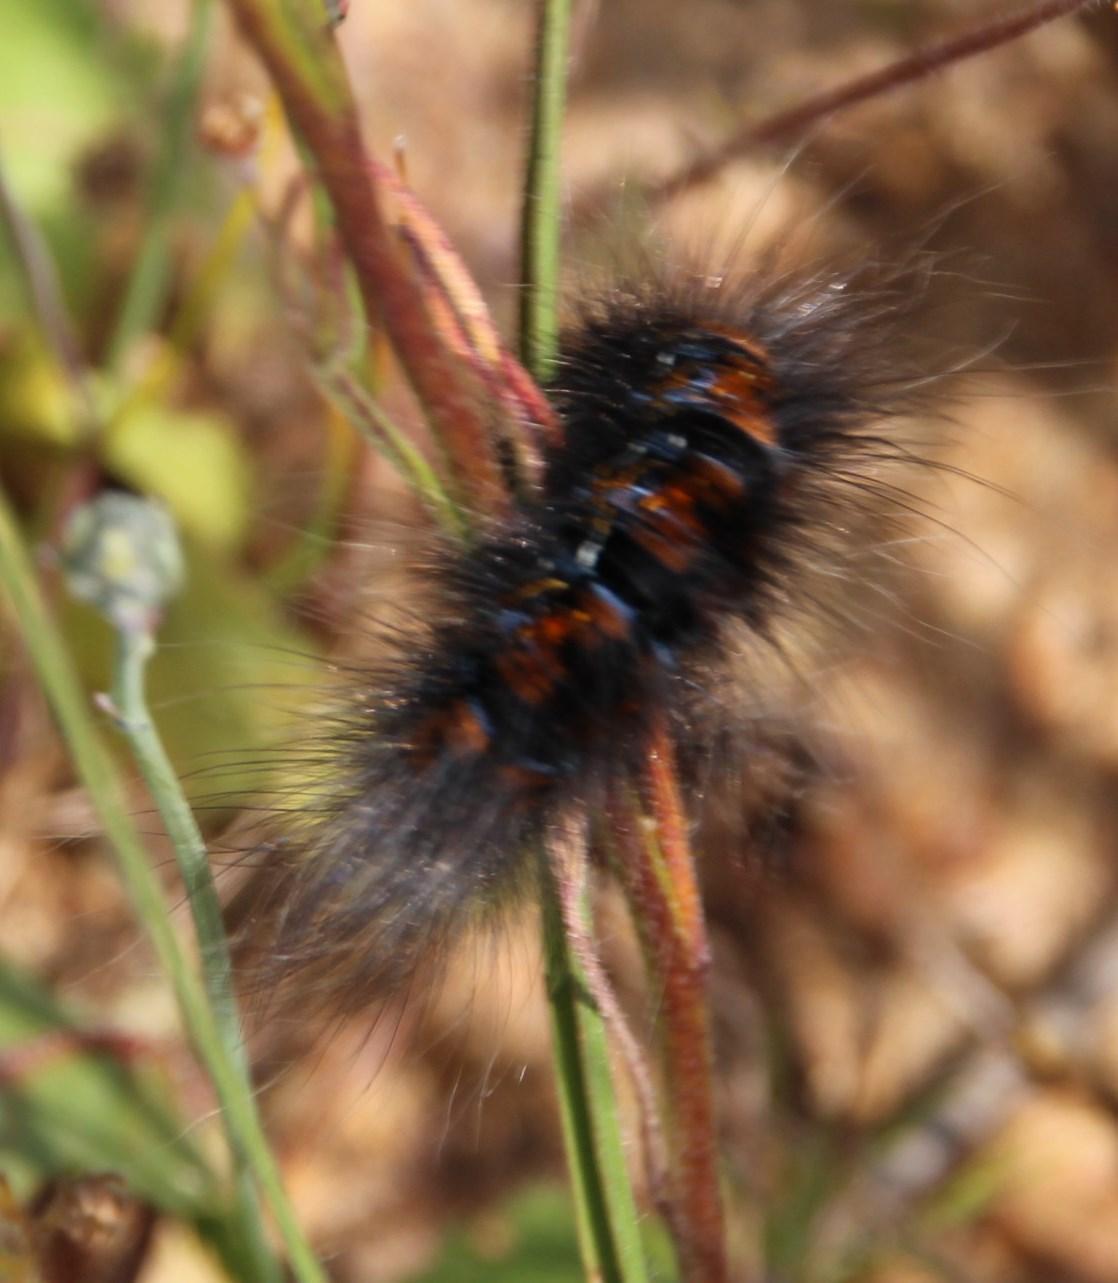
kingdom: Animalia
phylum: Arthropoda
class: Insecta
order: Lepidoptera
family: Lasiocampidae
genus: Mesocelis
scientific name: Mesocelis monticola
